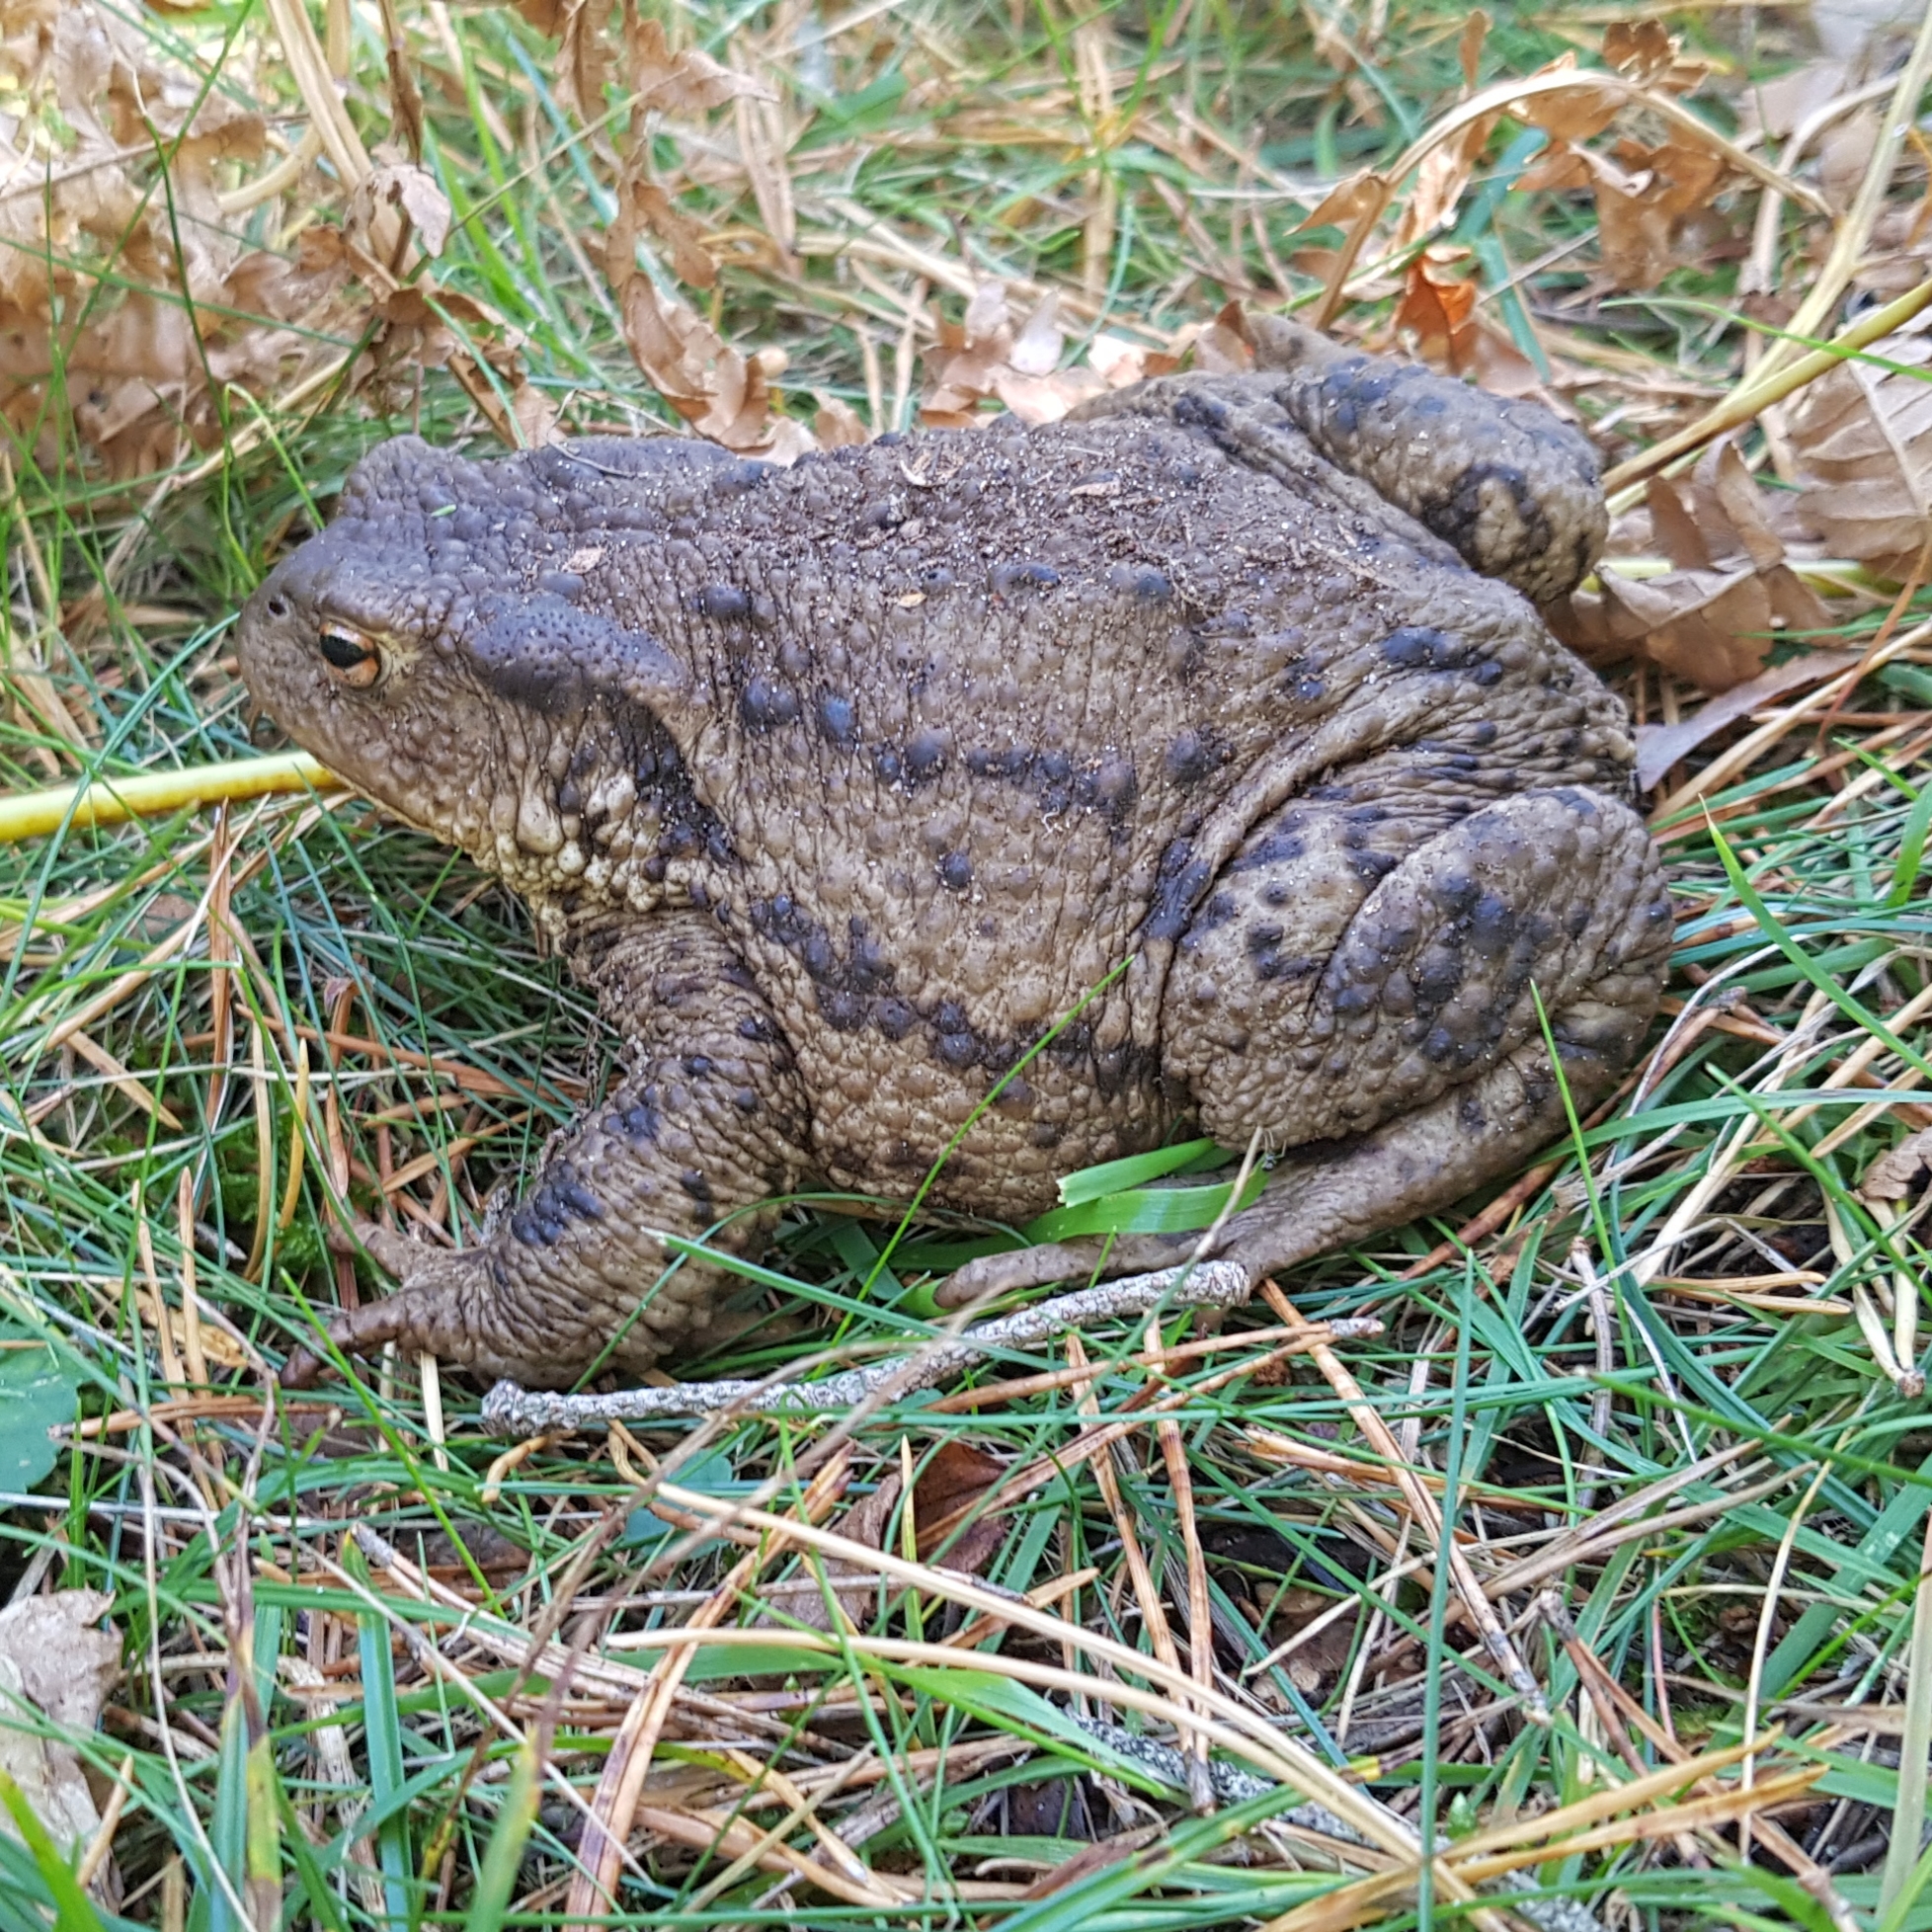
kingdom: Animalia
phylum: Chordata
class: Amphibia
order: Anura
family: Bufonidae
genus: Bufo
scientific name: Bufo bufo
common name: Common toad
